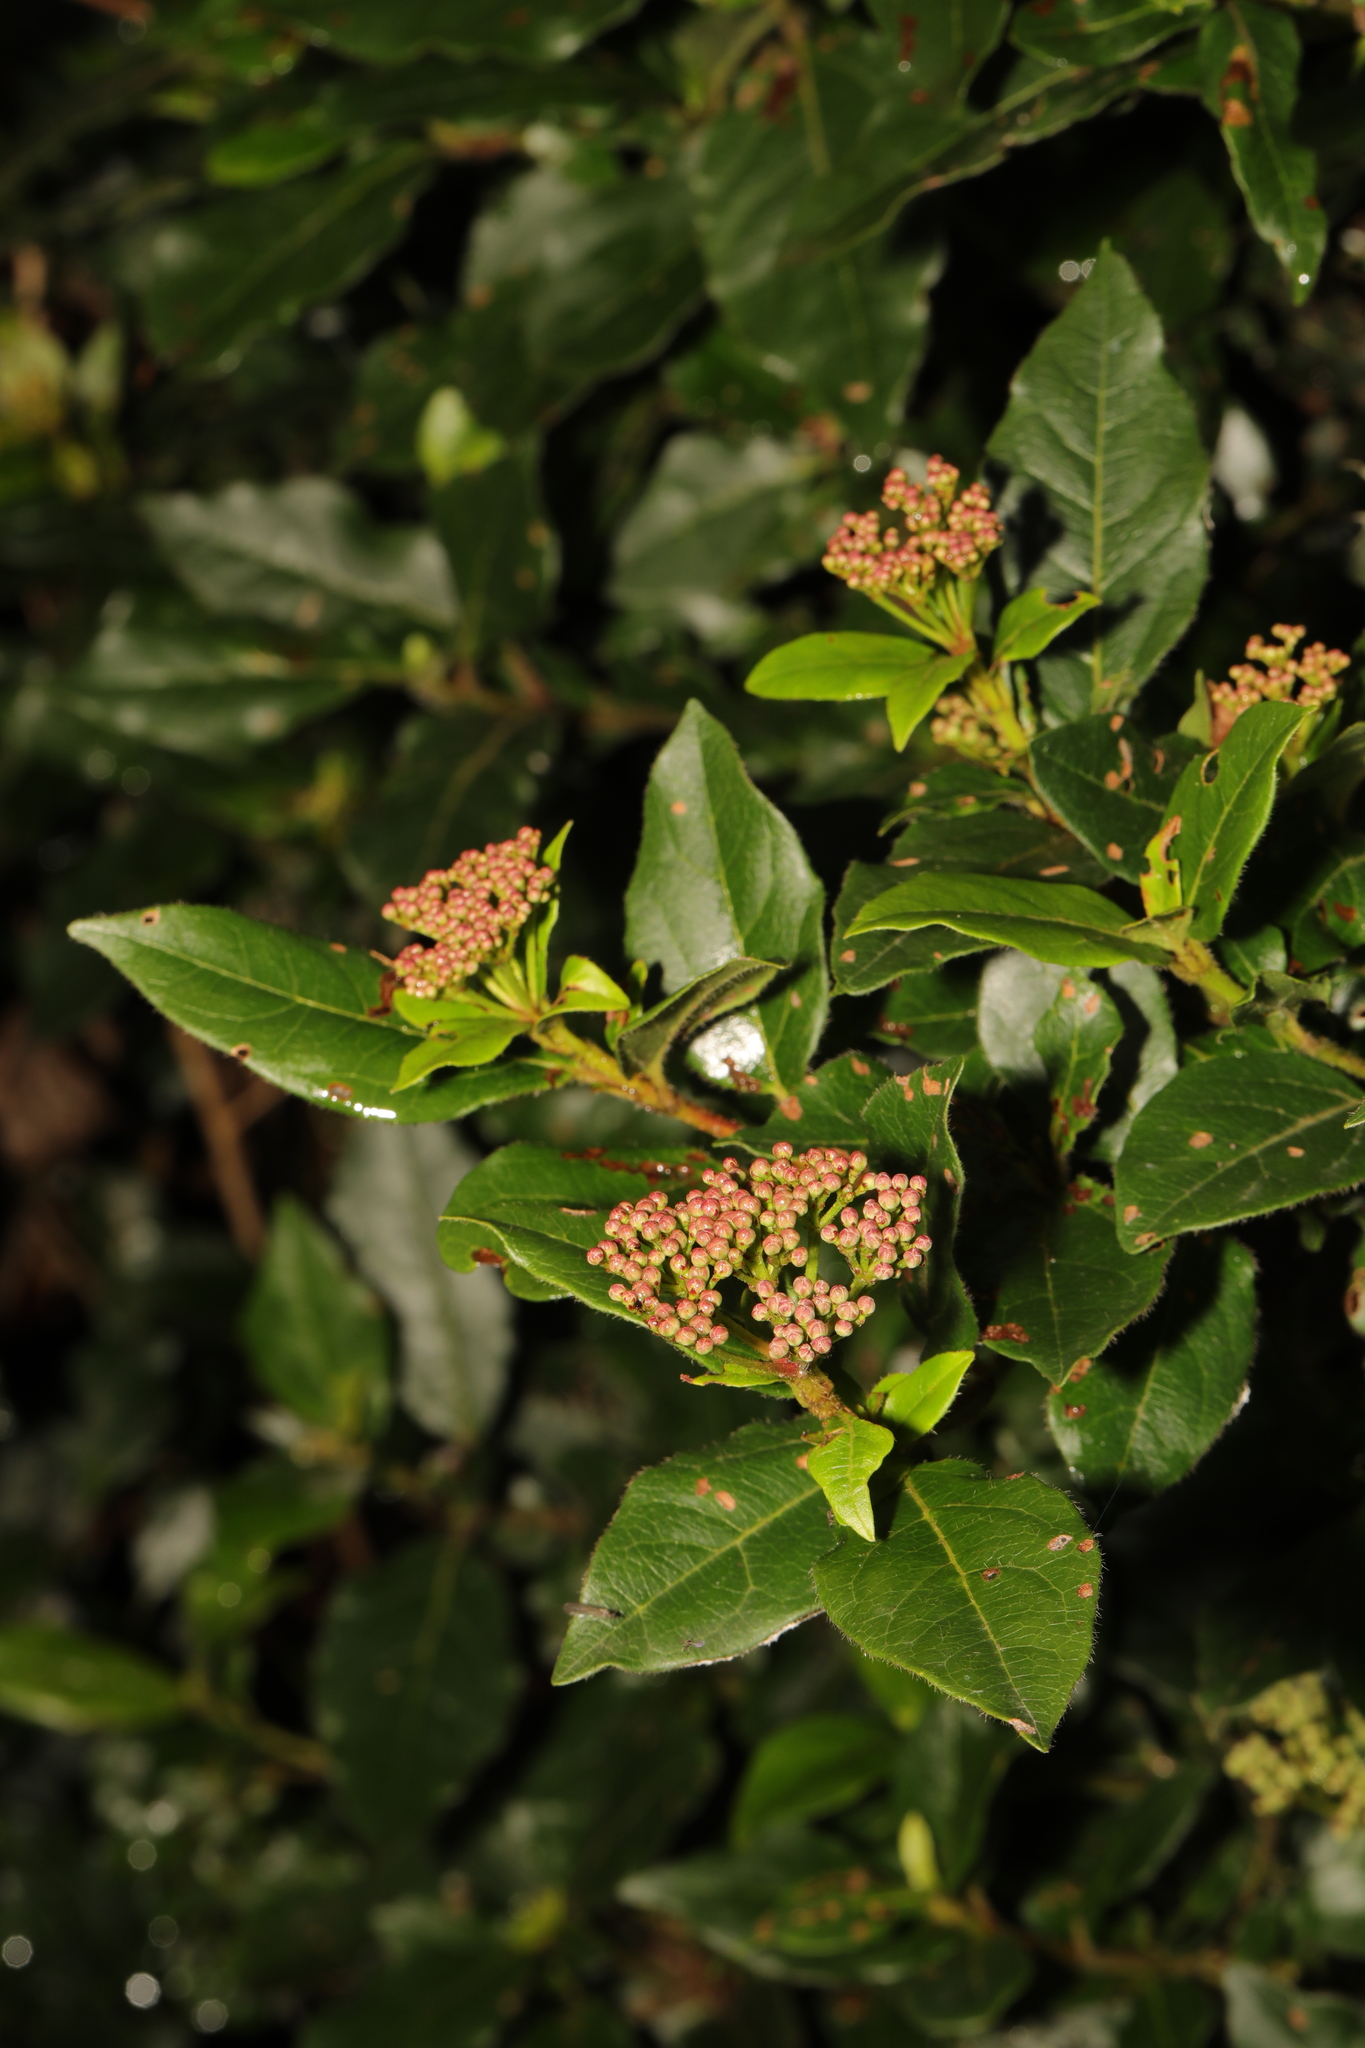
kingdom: Plantae
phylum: Tracheophyta
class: Magnoliopsida
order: Dipsacales
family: Viburnaceae
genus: Viburnum
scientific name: Viburnum tinus
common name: Laurustinus
